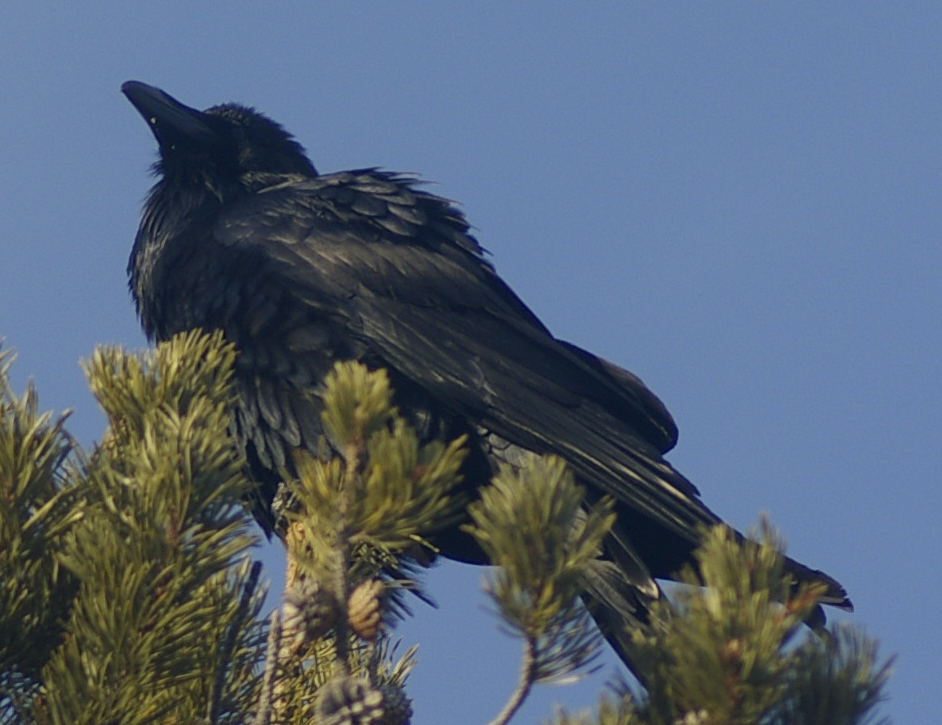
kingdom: Animalia
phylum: Chordata
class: Aves
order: Passeriformes
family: Corvidae
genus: Corvus
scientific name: Corvus corax
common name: Common raven
